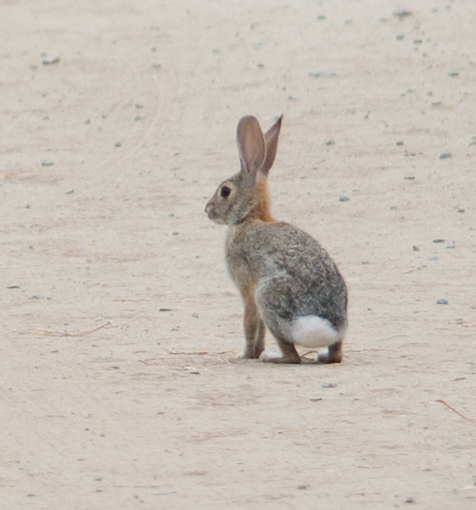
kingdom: Animalia
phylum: Chordata
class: Mammalia
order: Lagomorpha
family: Leporidae
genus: Sylvilagus
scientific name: Sylvilagus audubonii
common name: Desert cottontail
